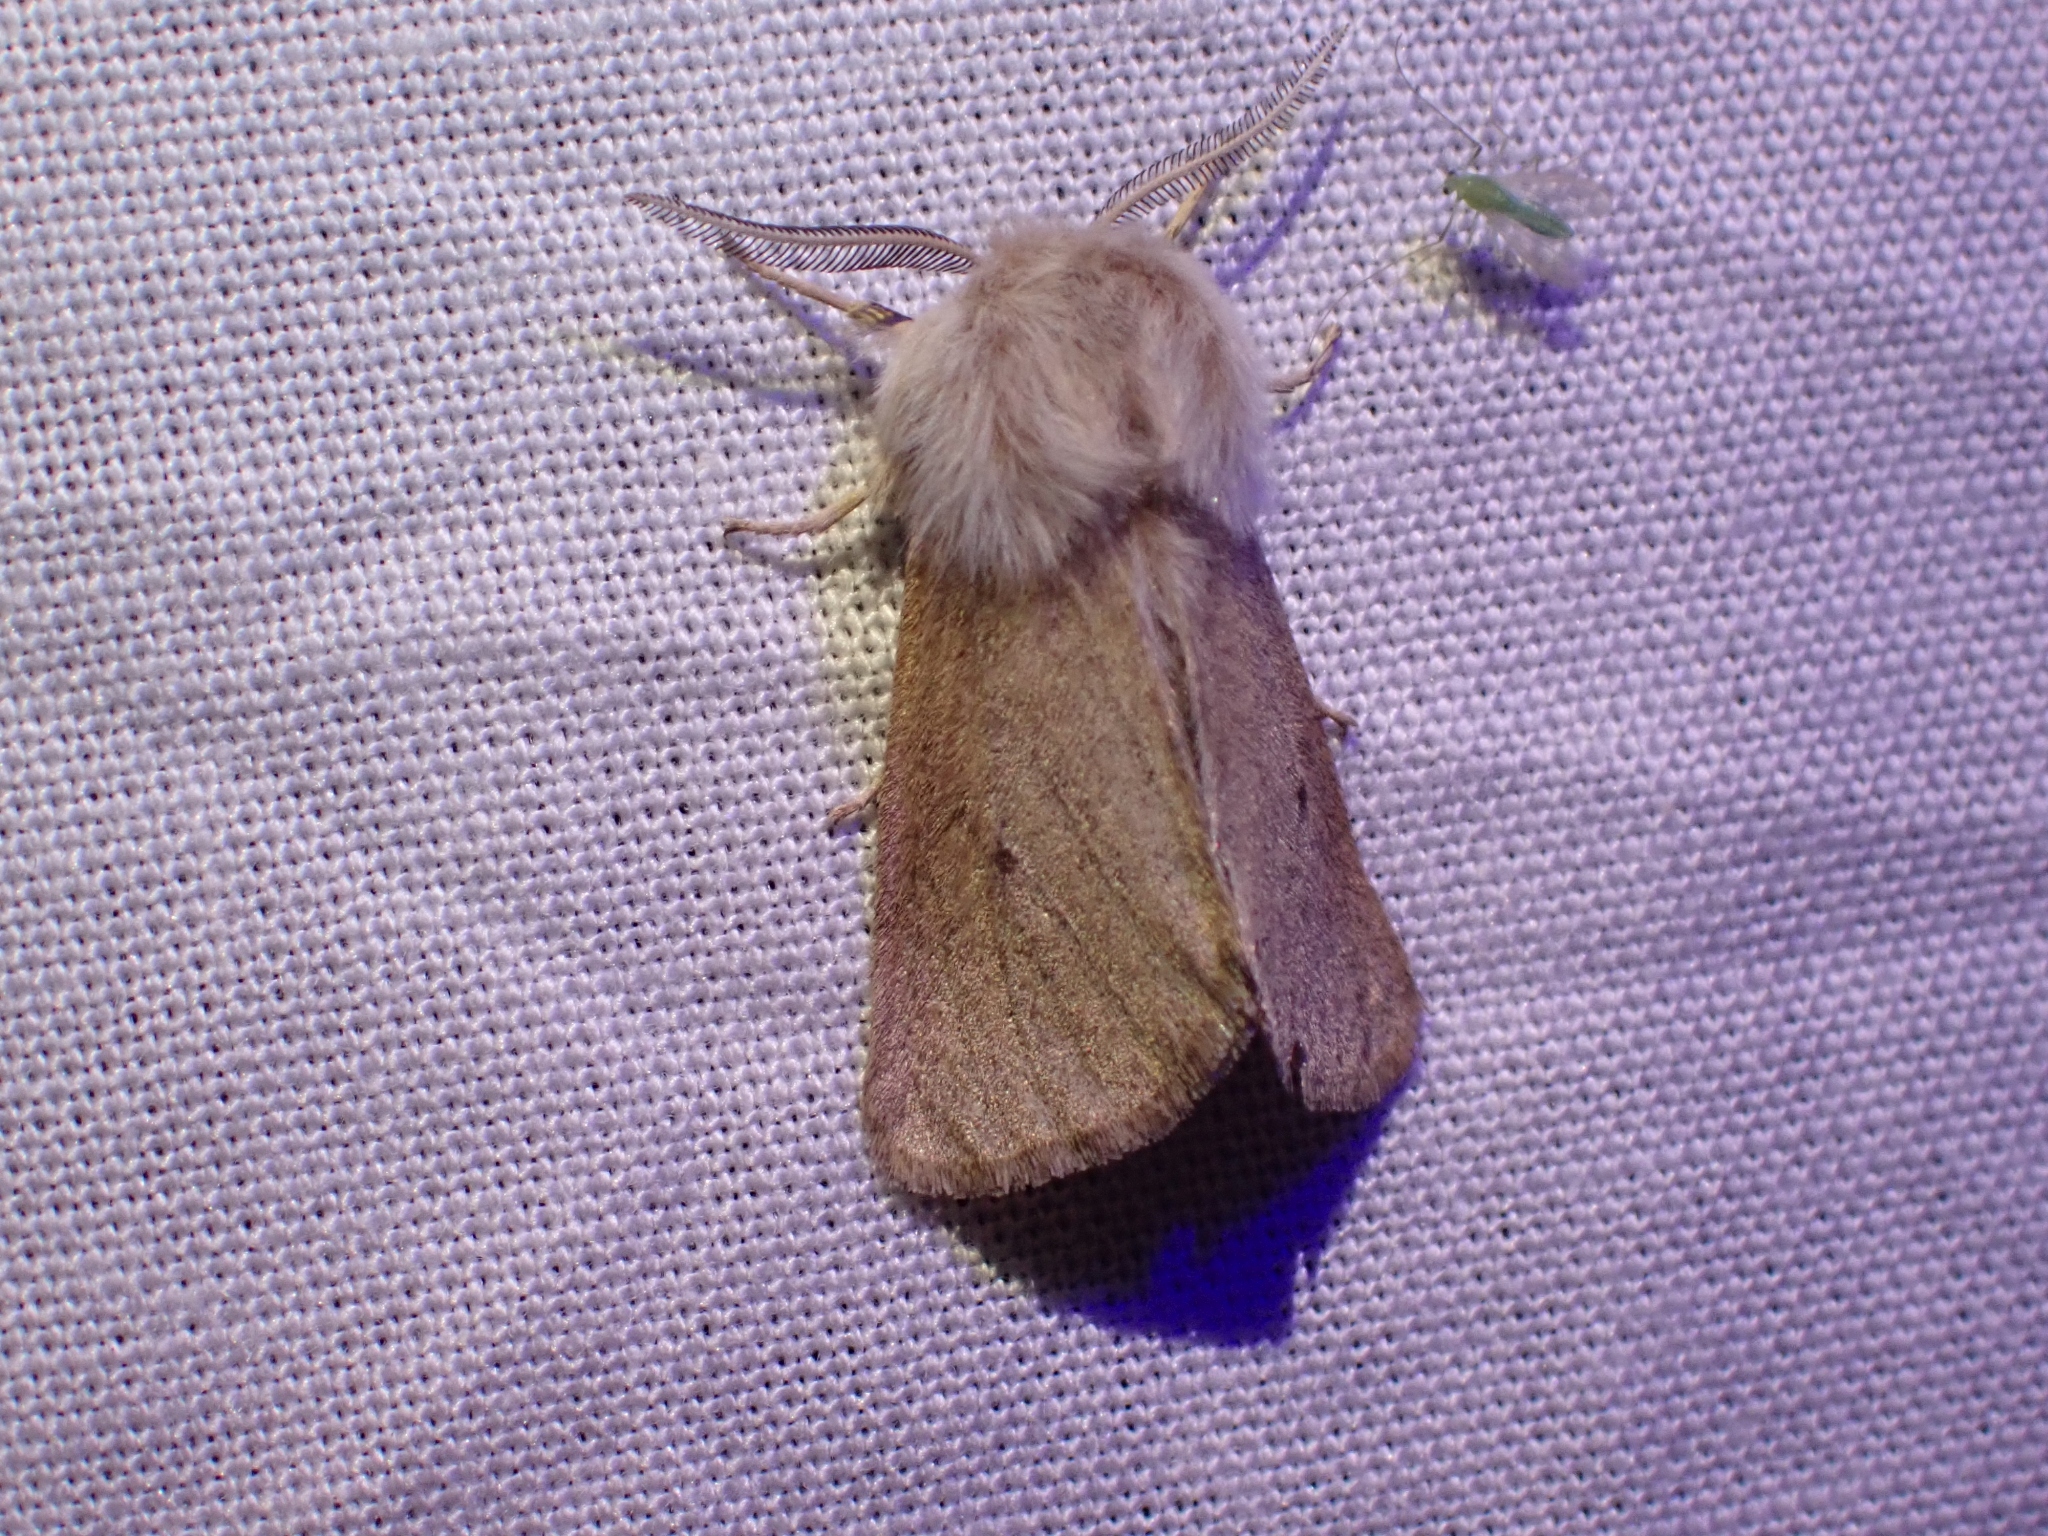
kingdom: Animalia
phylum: Arthropoda
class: Insecta
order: Lepidoptera
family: Erebidae
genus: Spilosoma
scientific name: Spilosoma vagans
